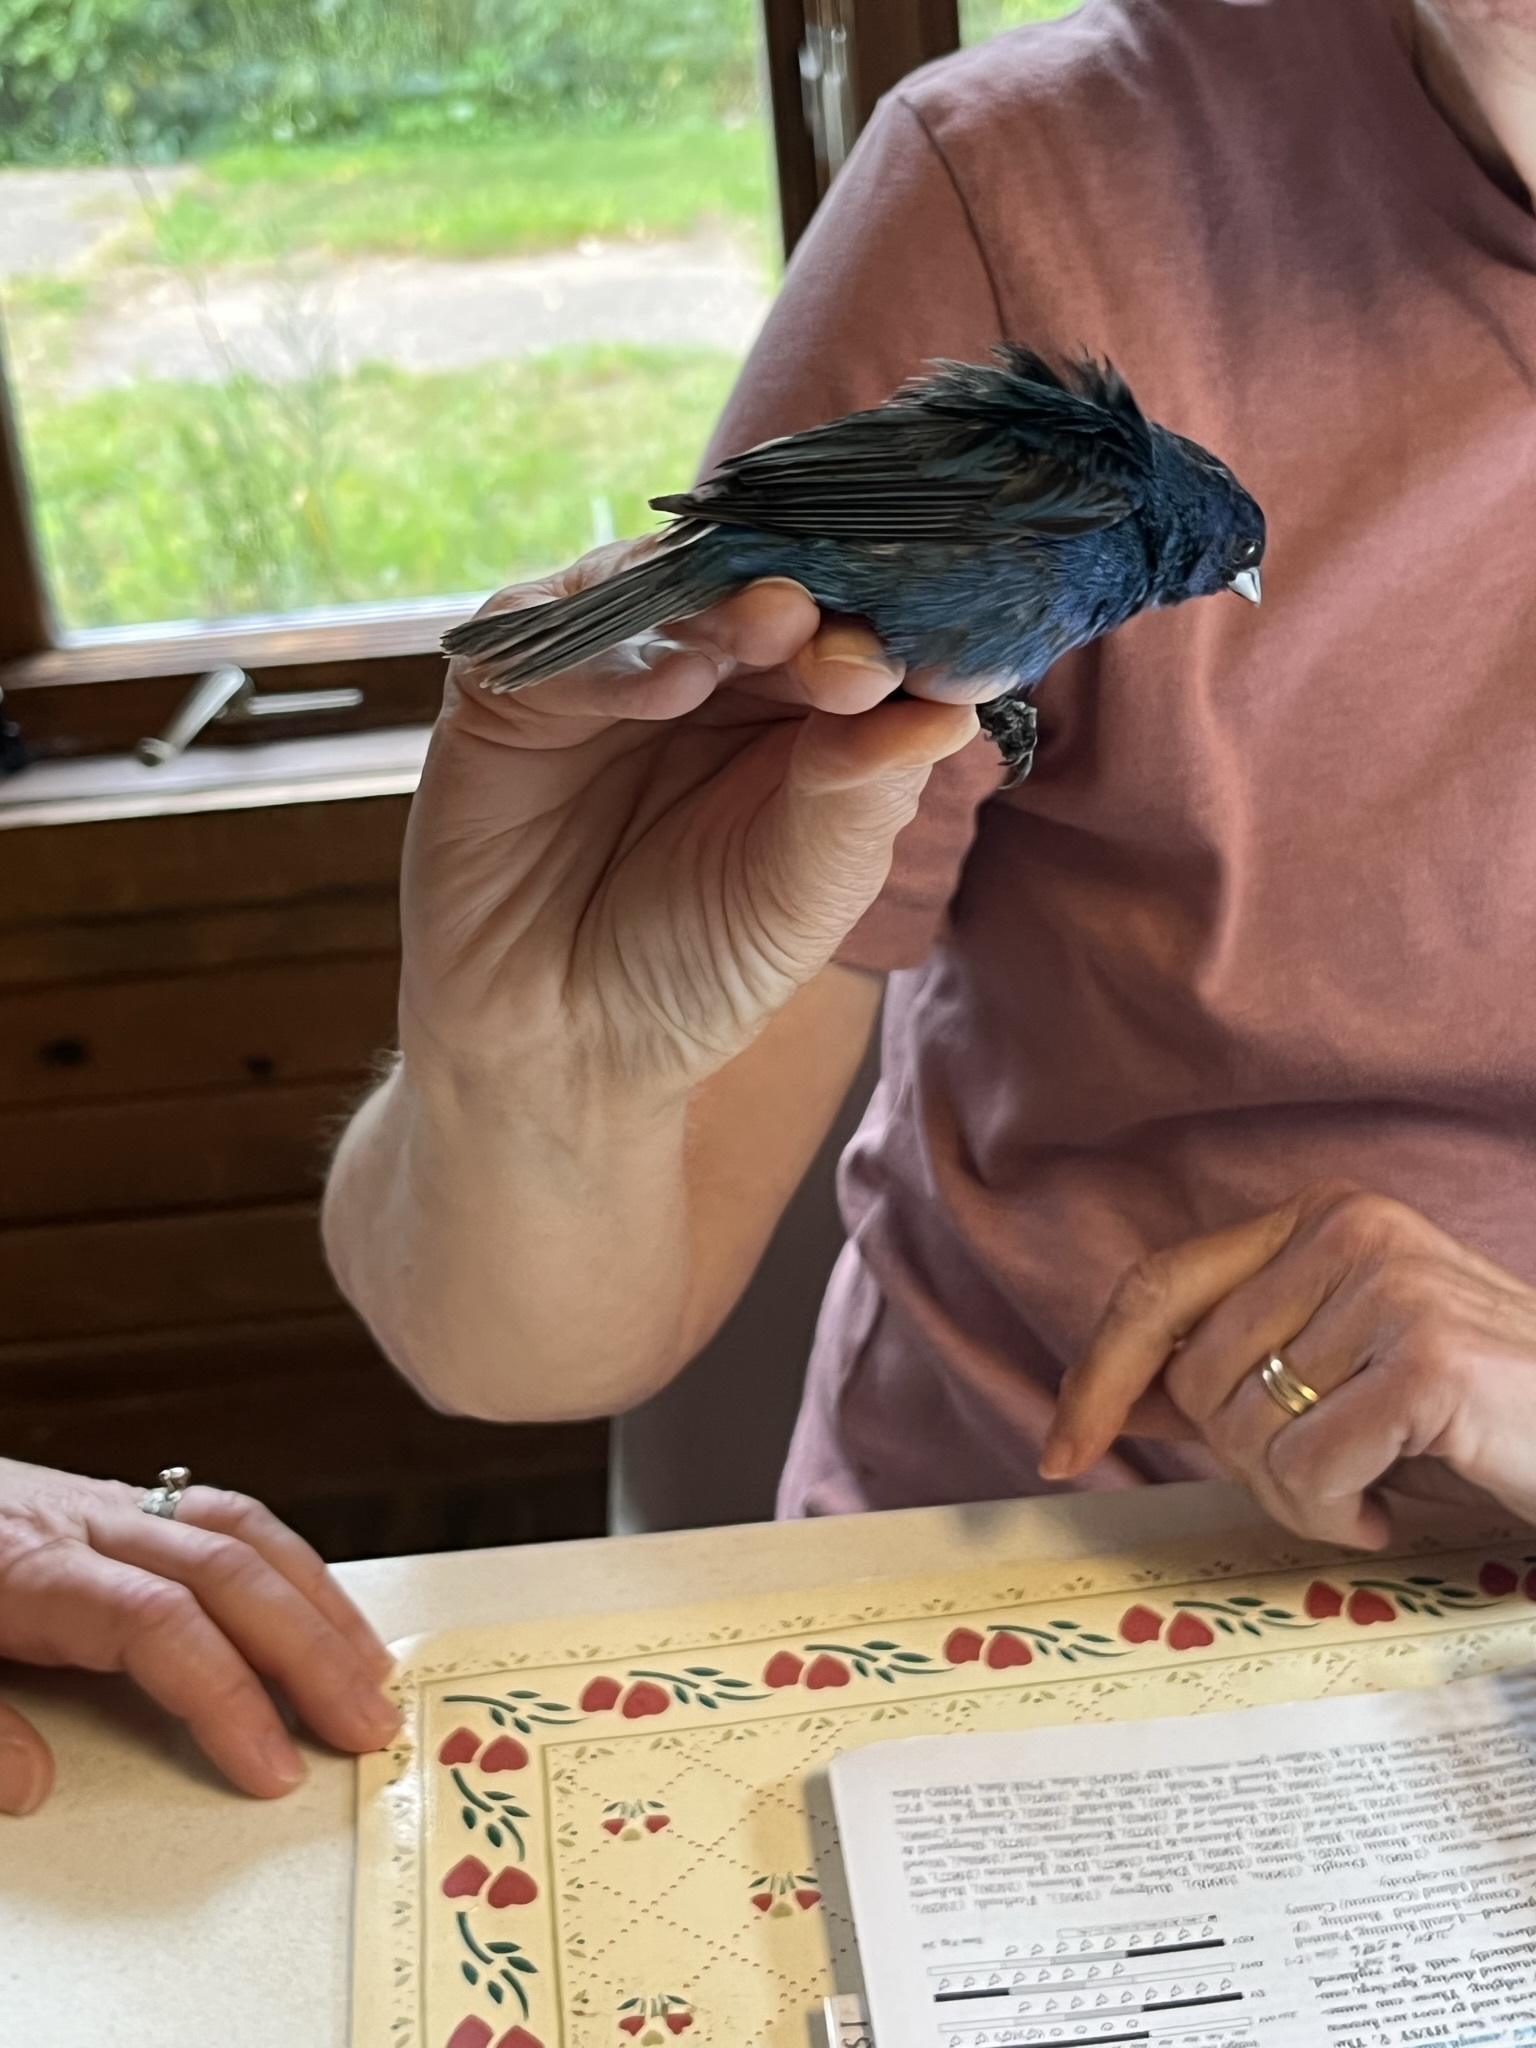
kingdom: Animalia
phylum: Chordata
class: Aves
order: Passeriformes
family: Cardinalidae
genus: Passerina
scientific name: Passerina cyanea
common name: Indigo bunting
